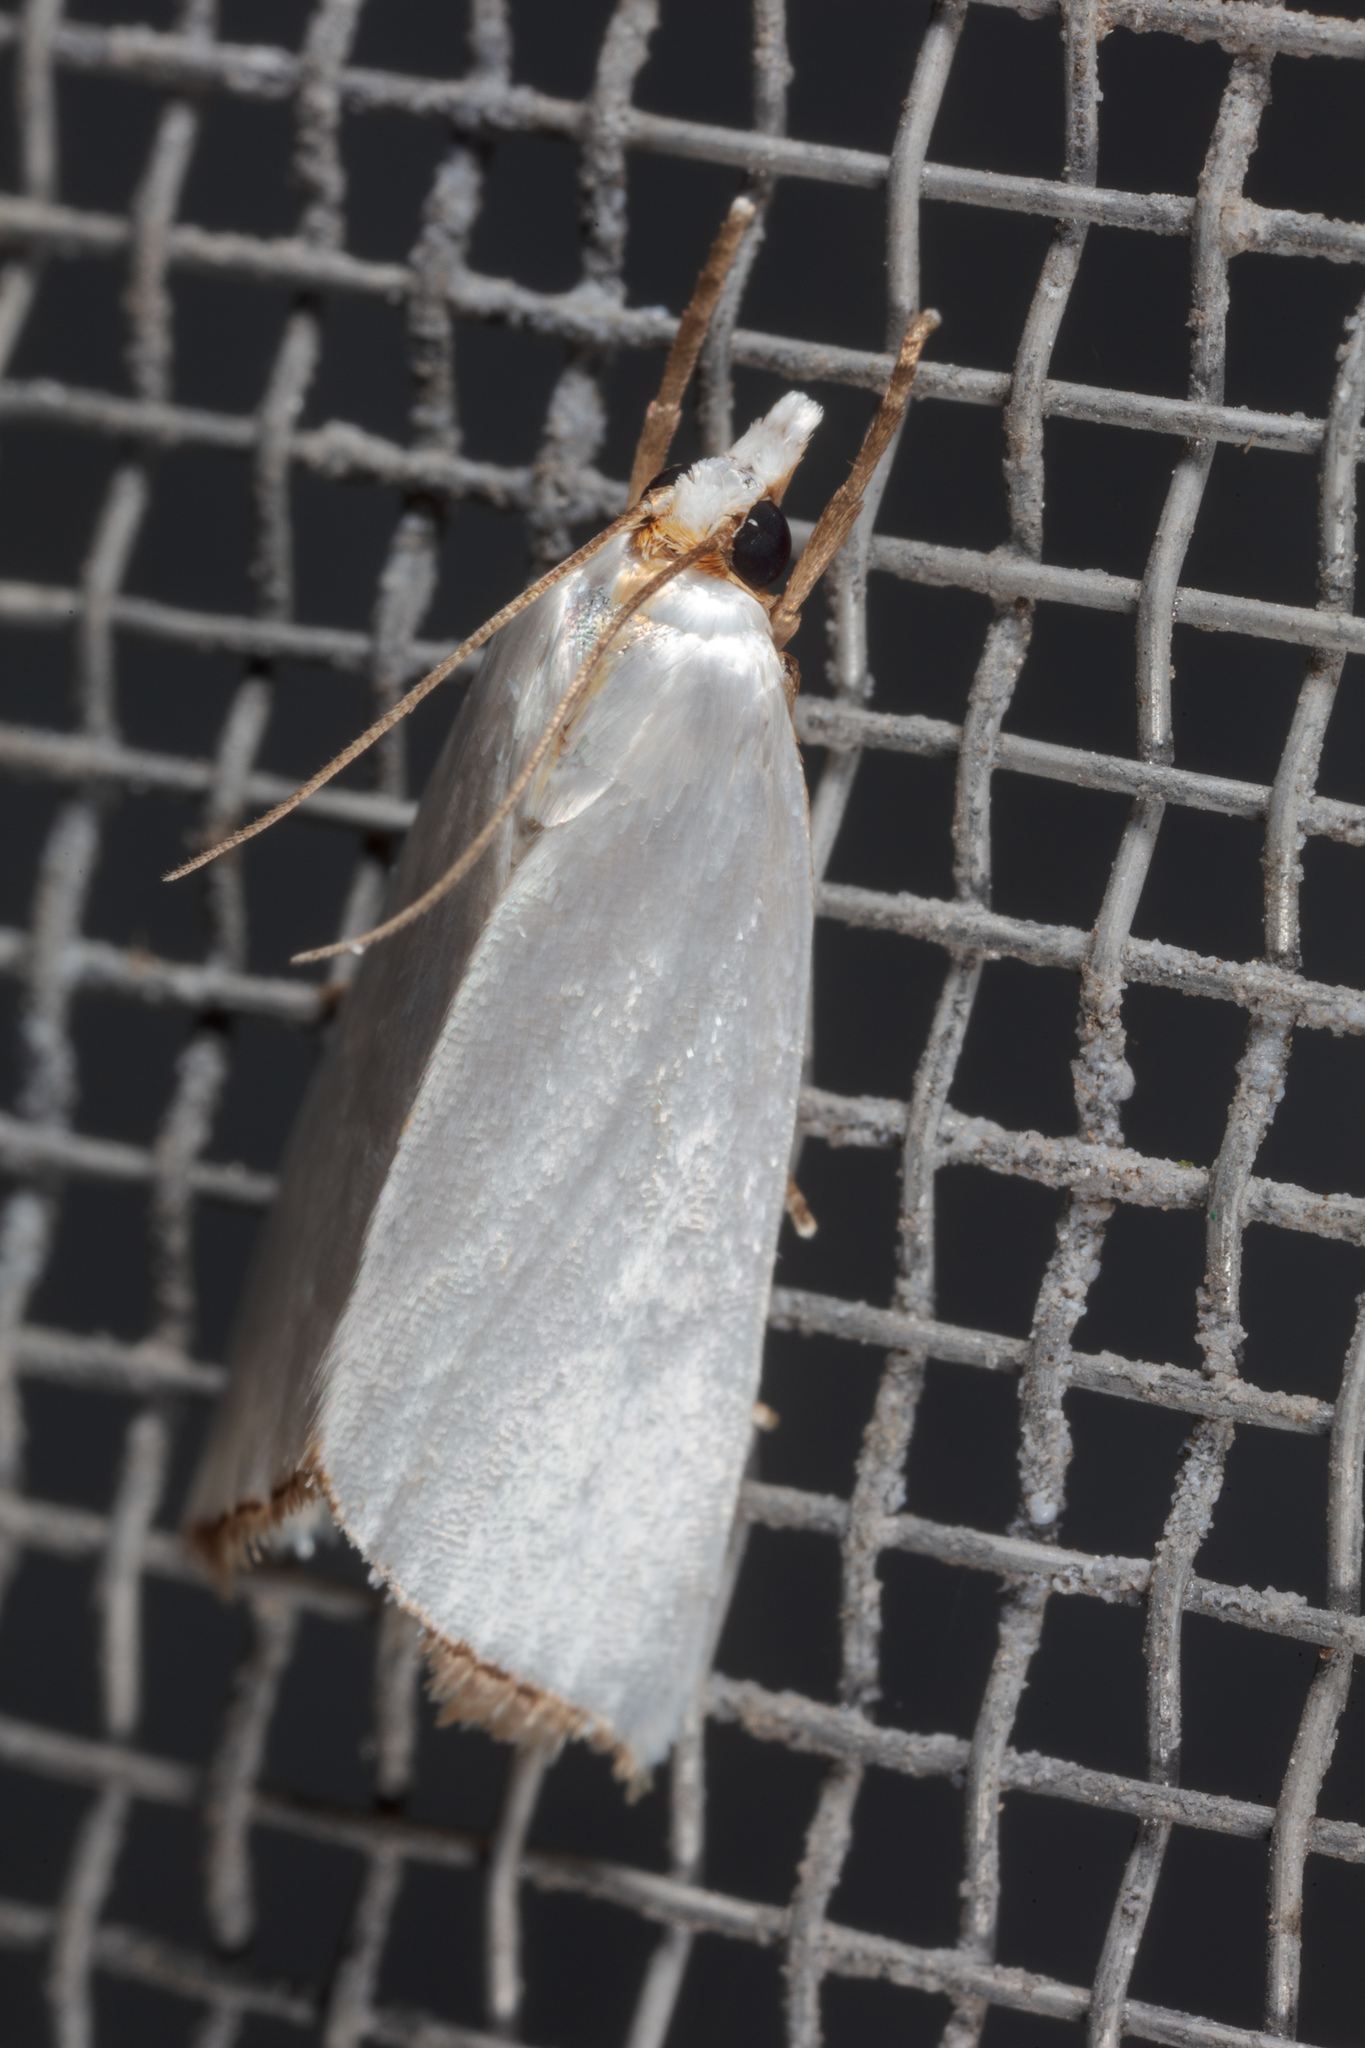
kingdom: Animalia
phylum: Arthropoda
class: Insecta
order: Lepidoptera
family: Crambidae
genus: Argyria
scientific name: Argyria nivalis
